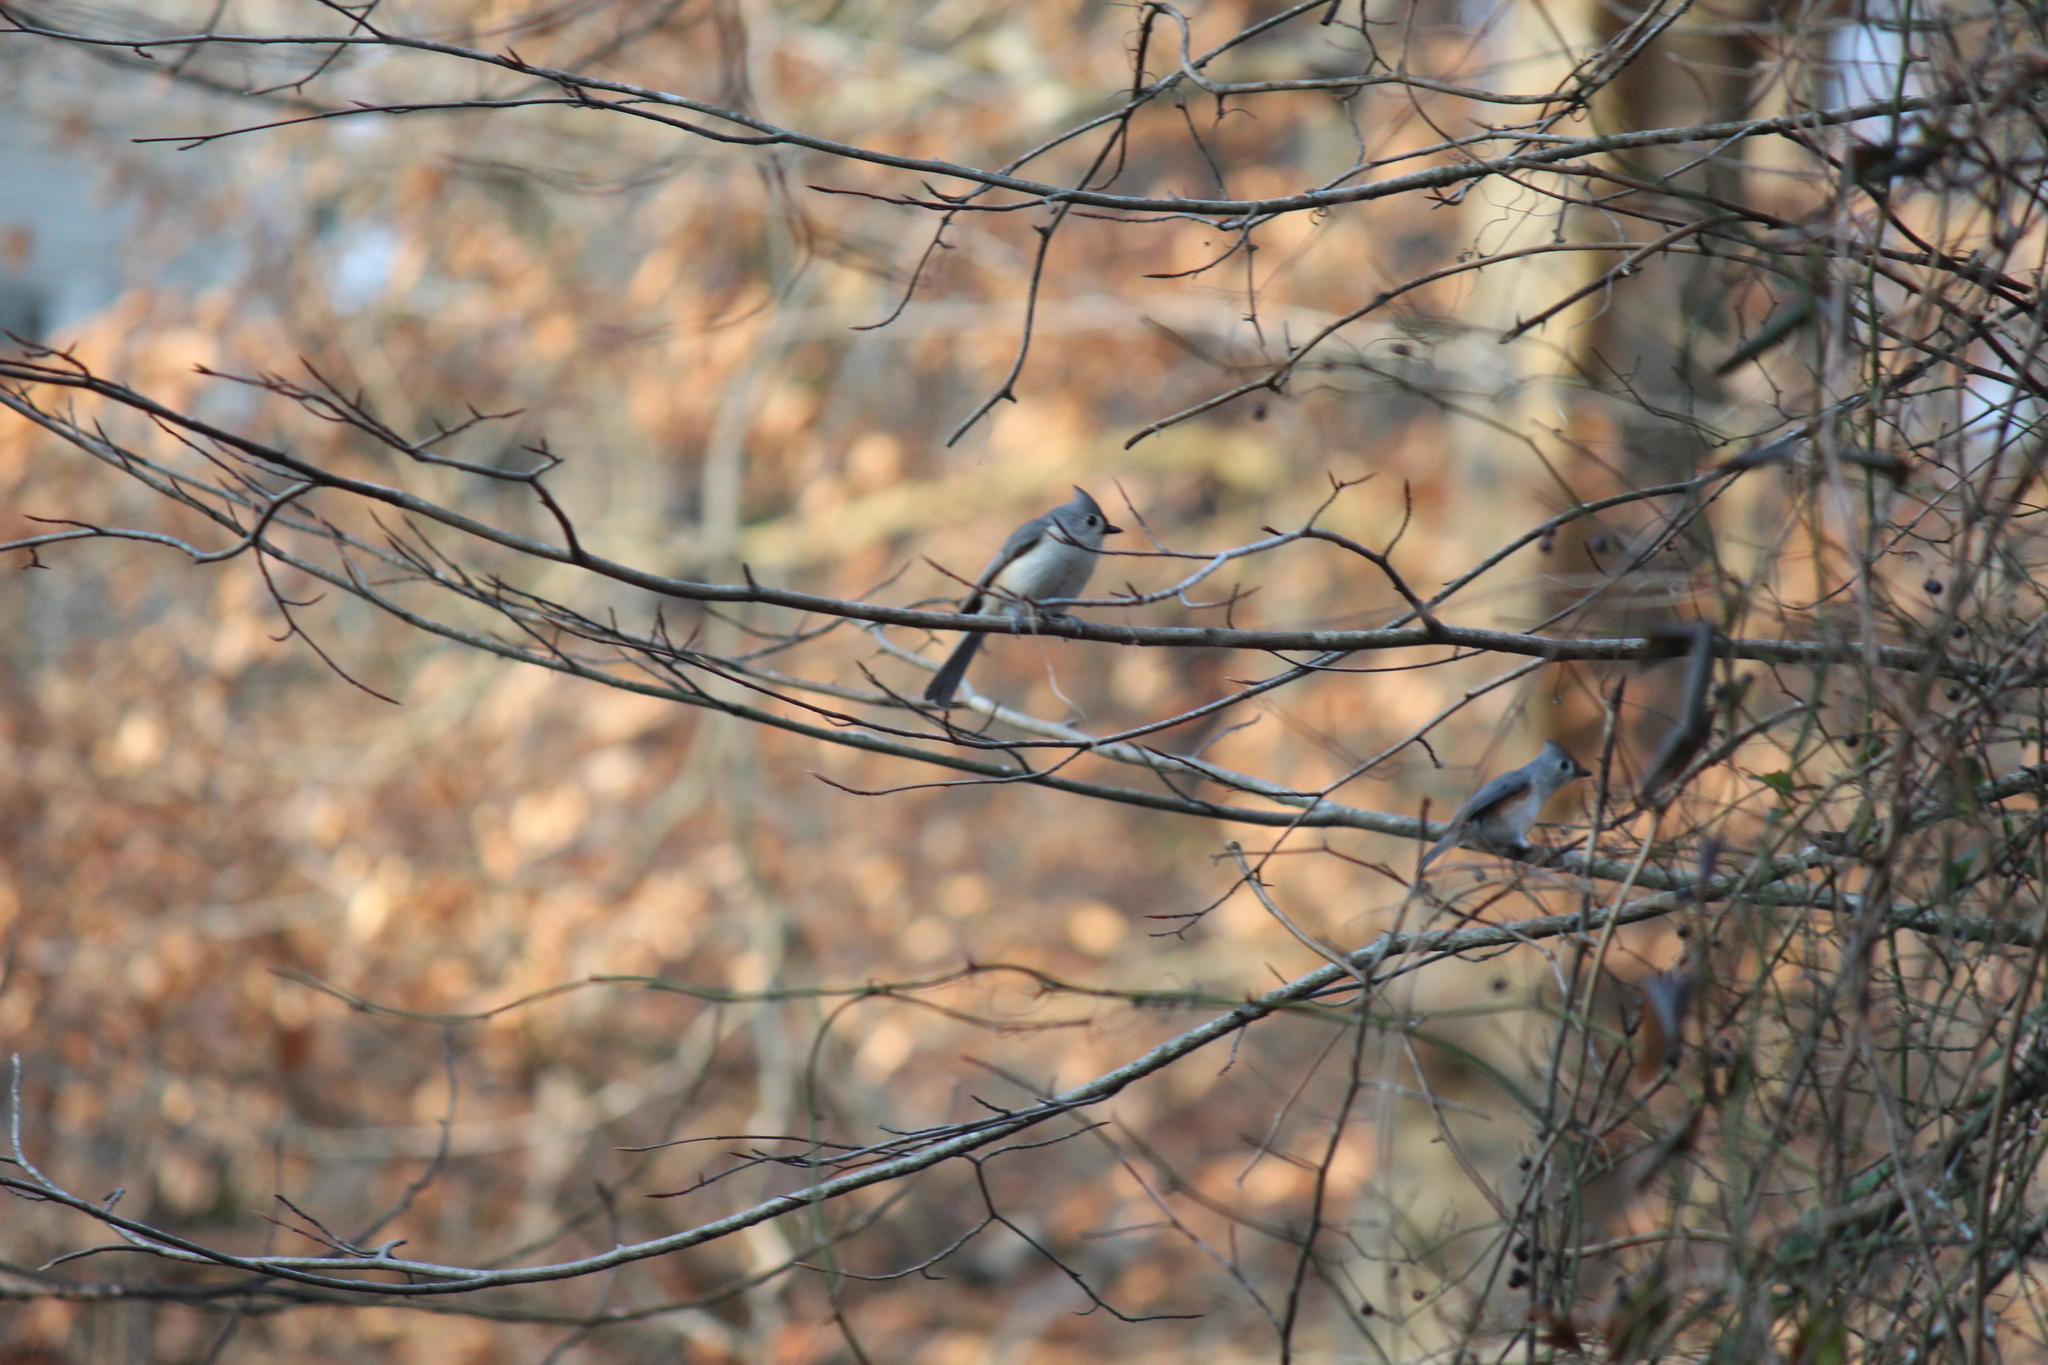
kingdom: Animalia
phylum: Chordata
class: Aves
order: Passeriformes
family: Paridae
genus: Baeolophus
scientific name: Baeolophus bicolor
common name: Tufted titmouse
